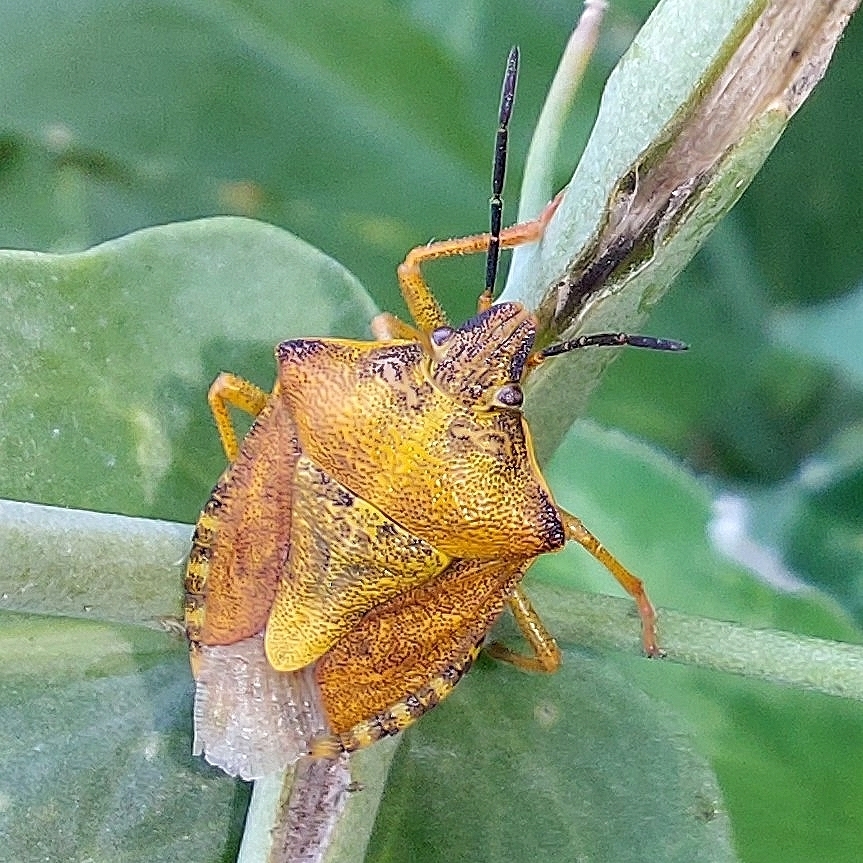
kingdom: Animalia
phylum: Arthropoda
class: Insecta
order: Hemiptera
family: Pentatomidae
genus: Carpocoris
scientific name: Carpocoris purpureipennis
